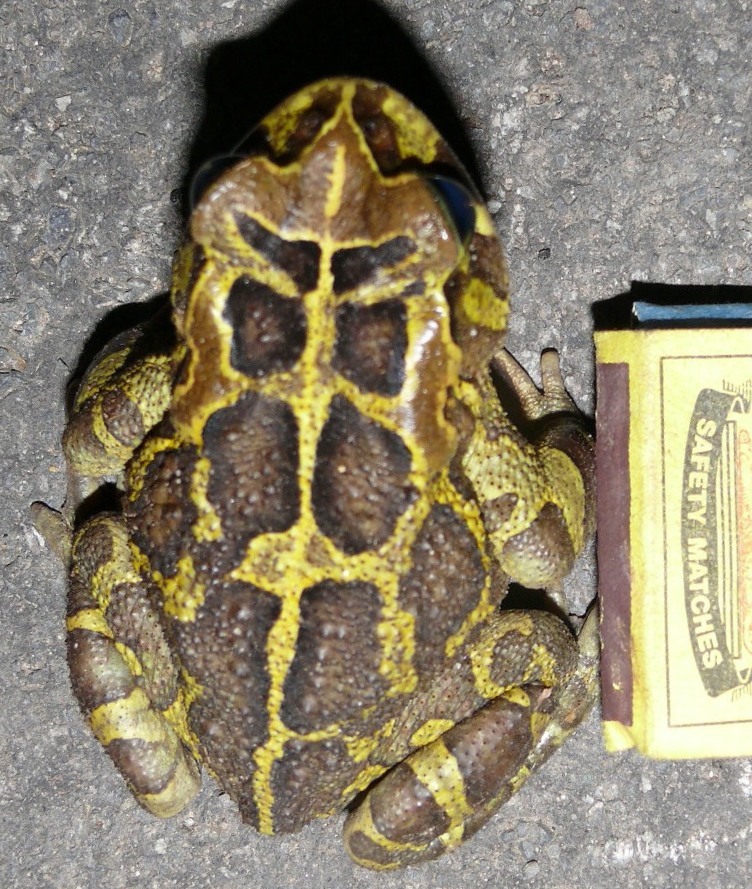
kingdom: Animalia
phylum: Chordata
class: Amphibia
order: Anura
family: Bufonidae
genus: Sclerophrys
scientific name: Sclerophrys pantherina
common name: Panther toad
